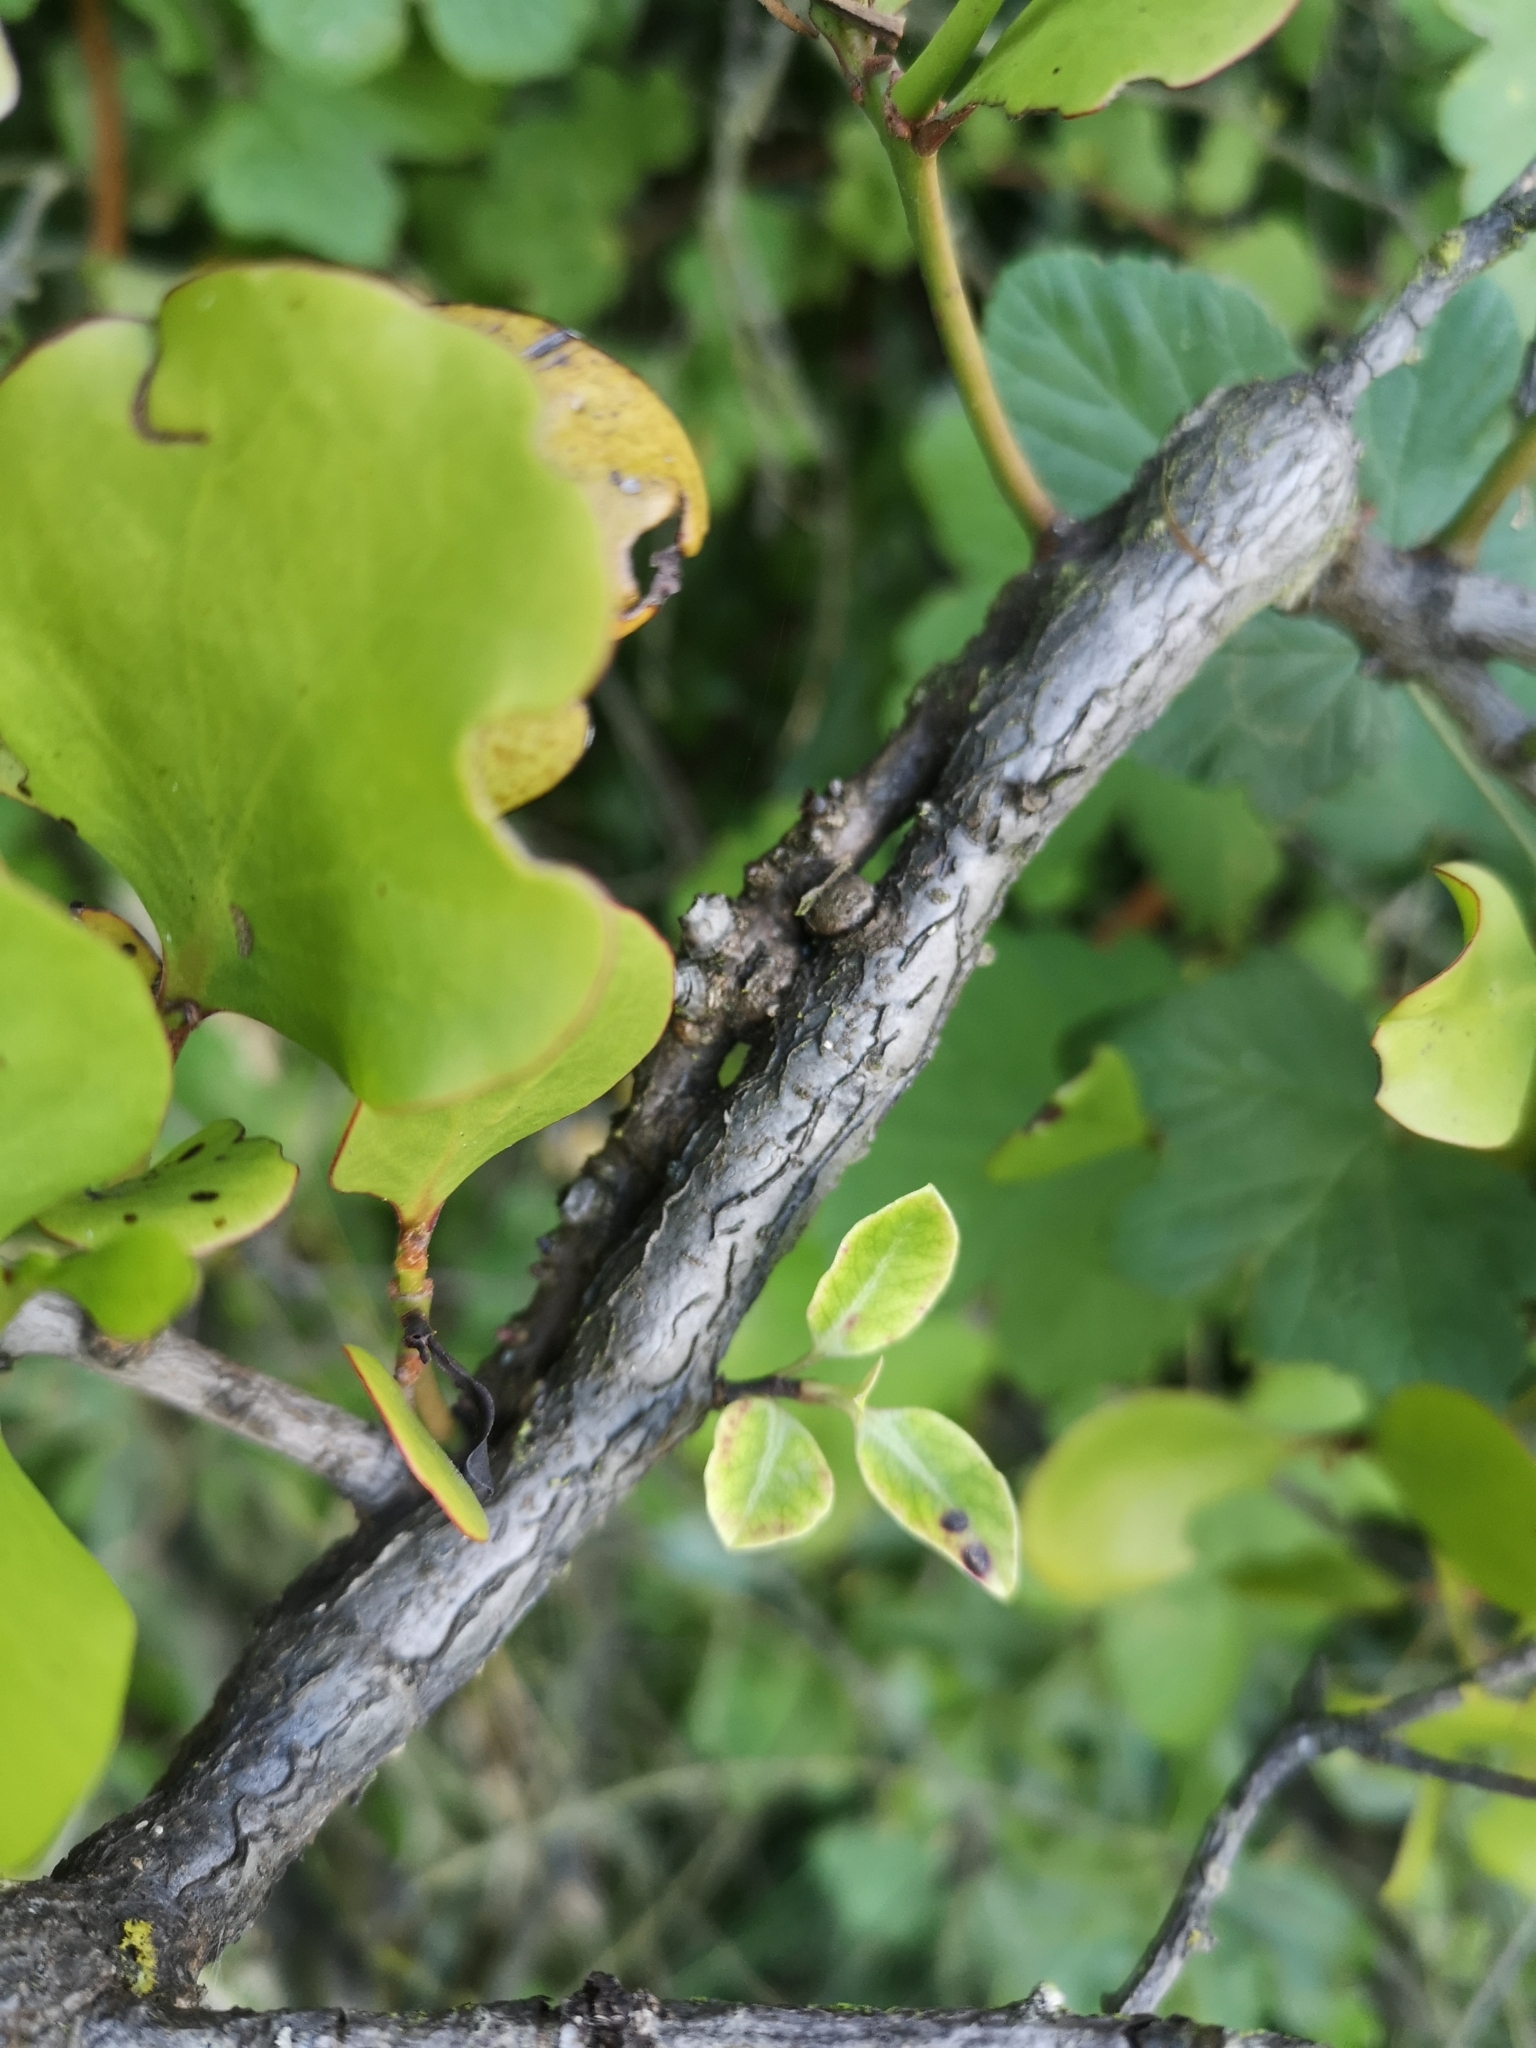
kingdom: Plantae
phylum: Tracheophyta
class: Magnoliopsida
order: Santalales
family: Loranthaceae
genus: Ileostylus
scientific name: Ileostylus micranthus
